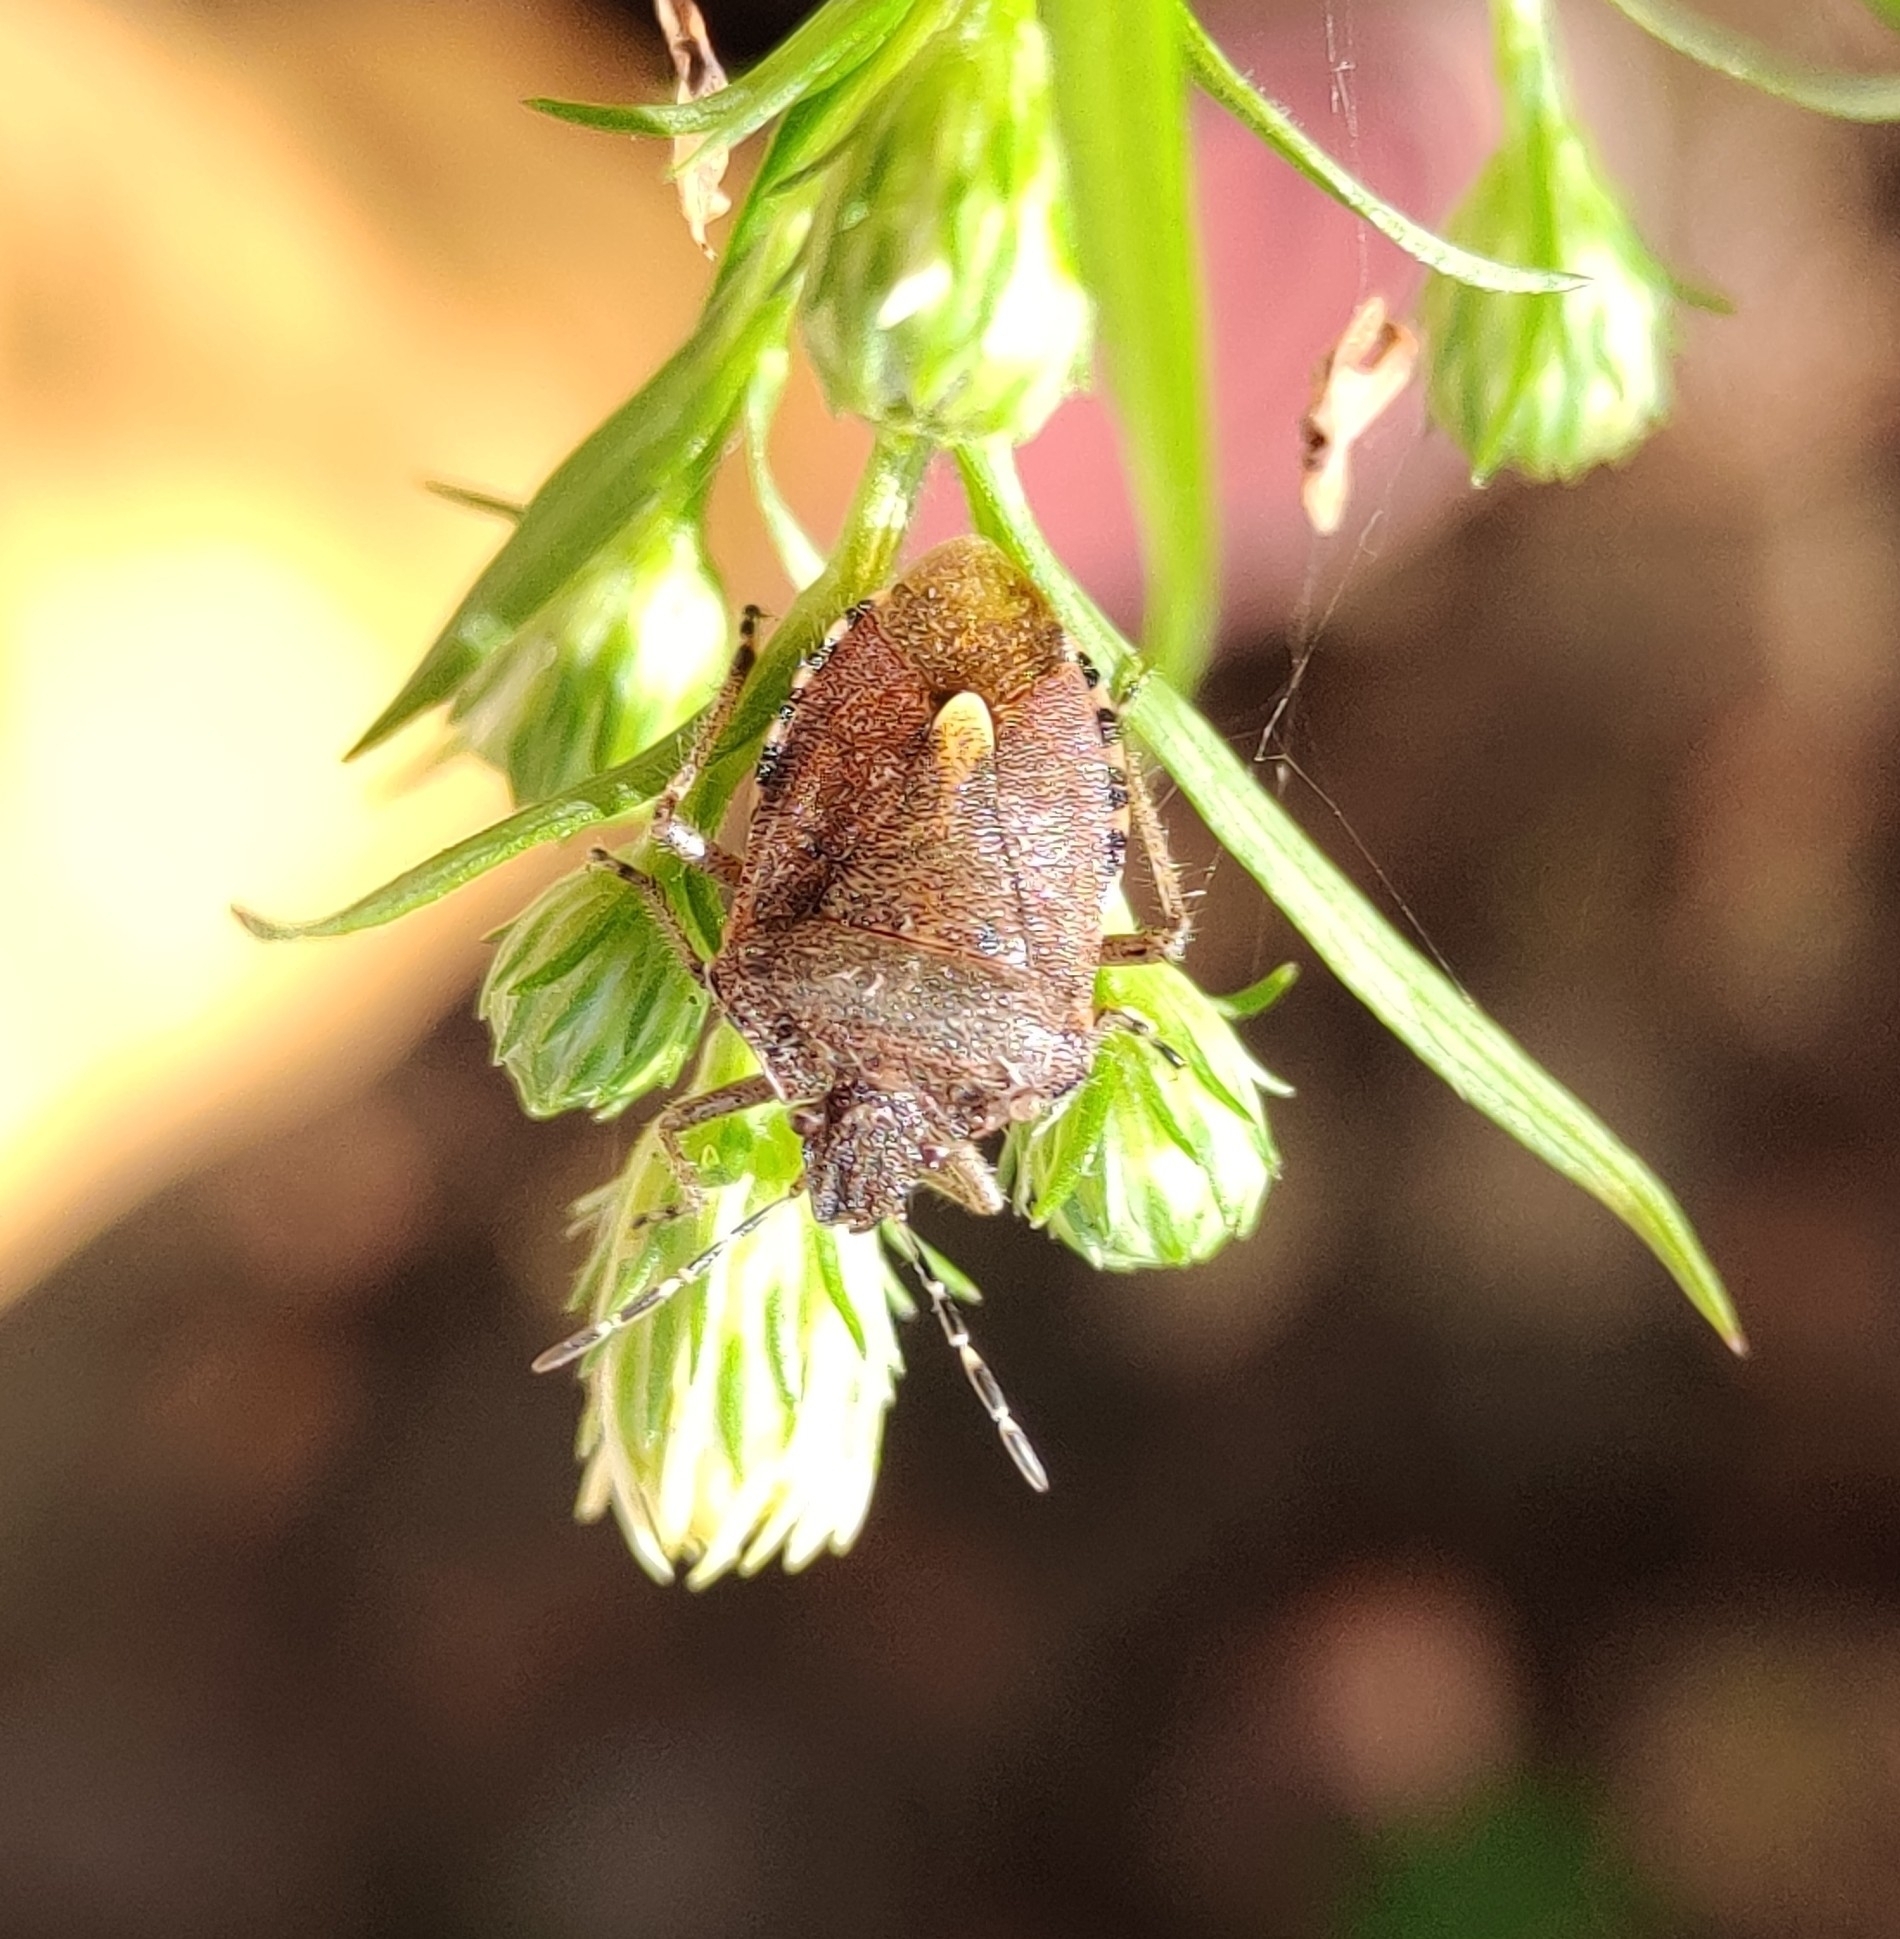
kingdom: Animalia
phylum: Arthropoda
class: Insecta
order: Hemiptera
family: Pentatomidae
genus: Dolycoris
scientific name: Dolycoris baccarum
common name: Sloe bug
